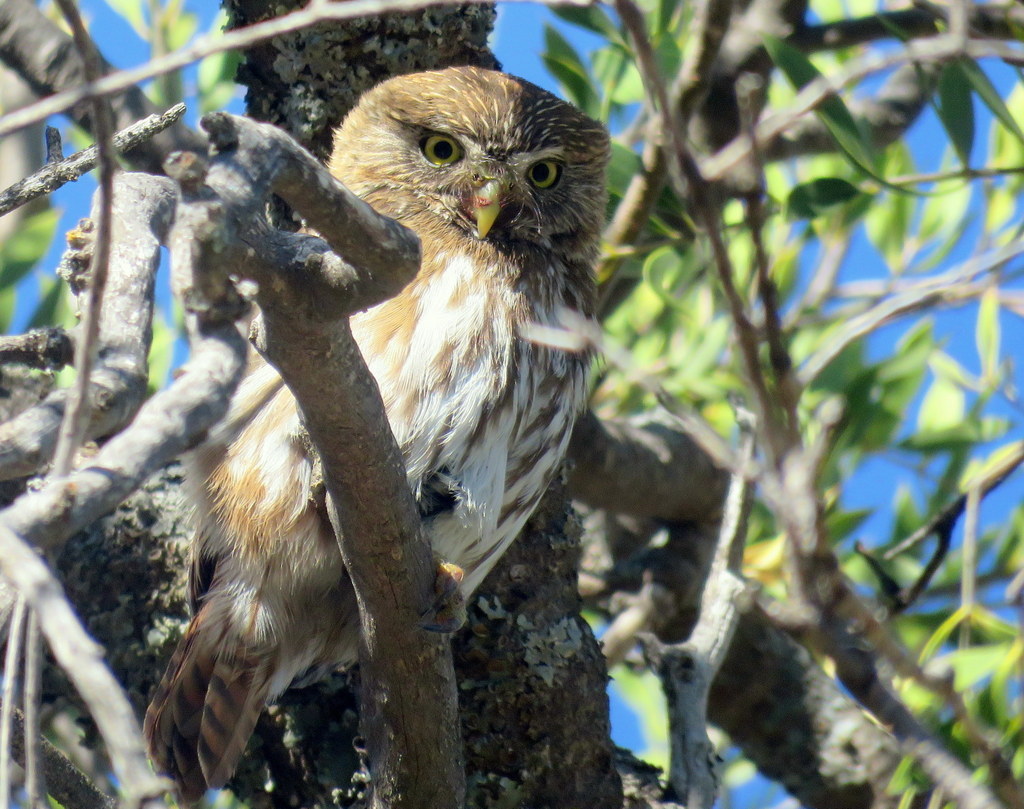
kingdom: Animalia
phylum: Chordata
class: Aves
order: Strigiformes
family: Strigidae
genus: Glaucidium
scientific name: Glaucidium brasilianum
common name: Ferruginous pygmy-owl
